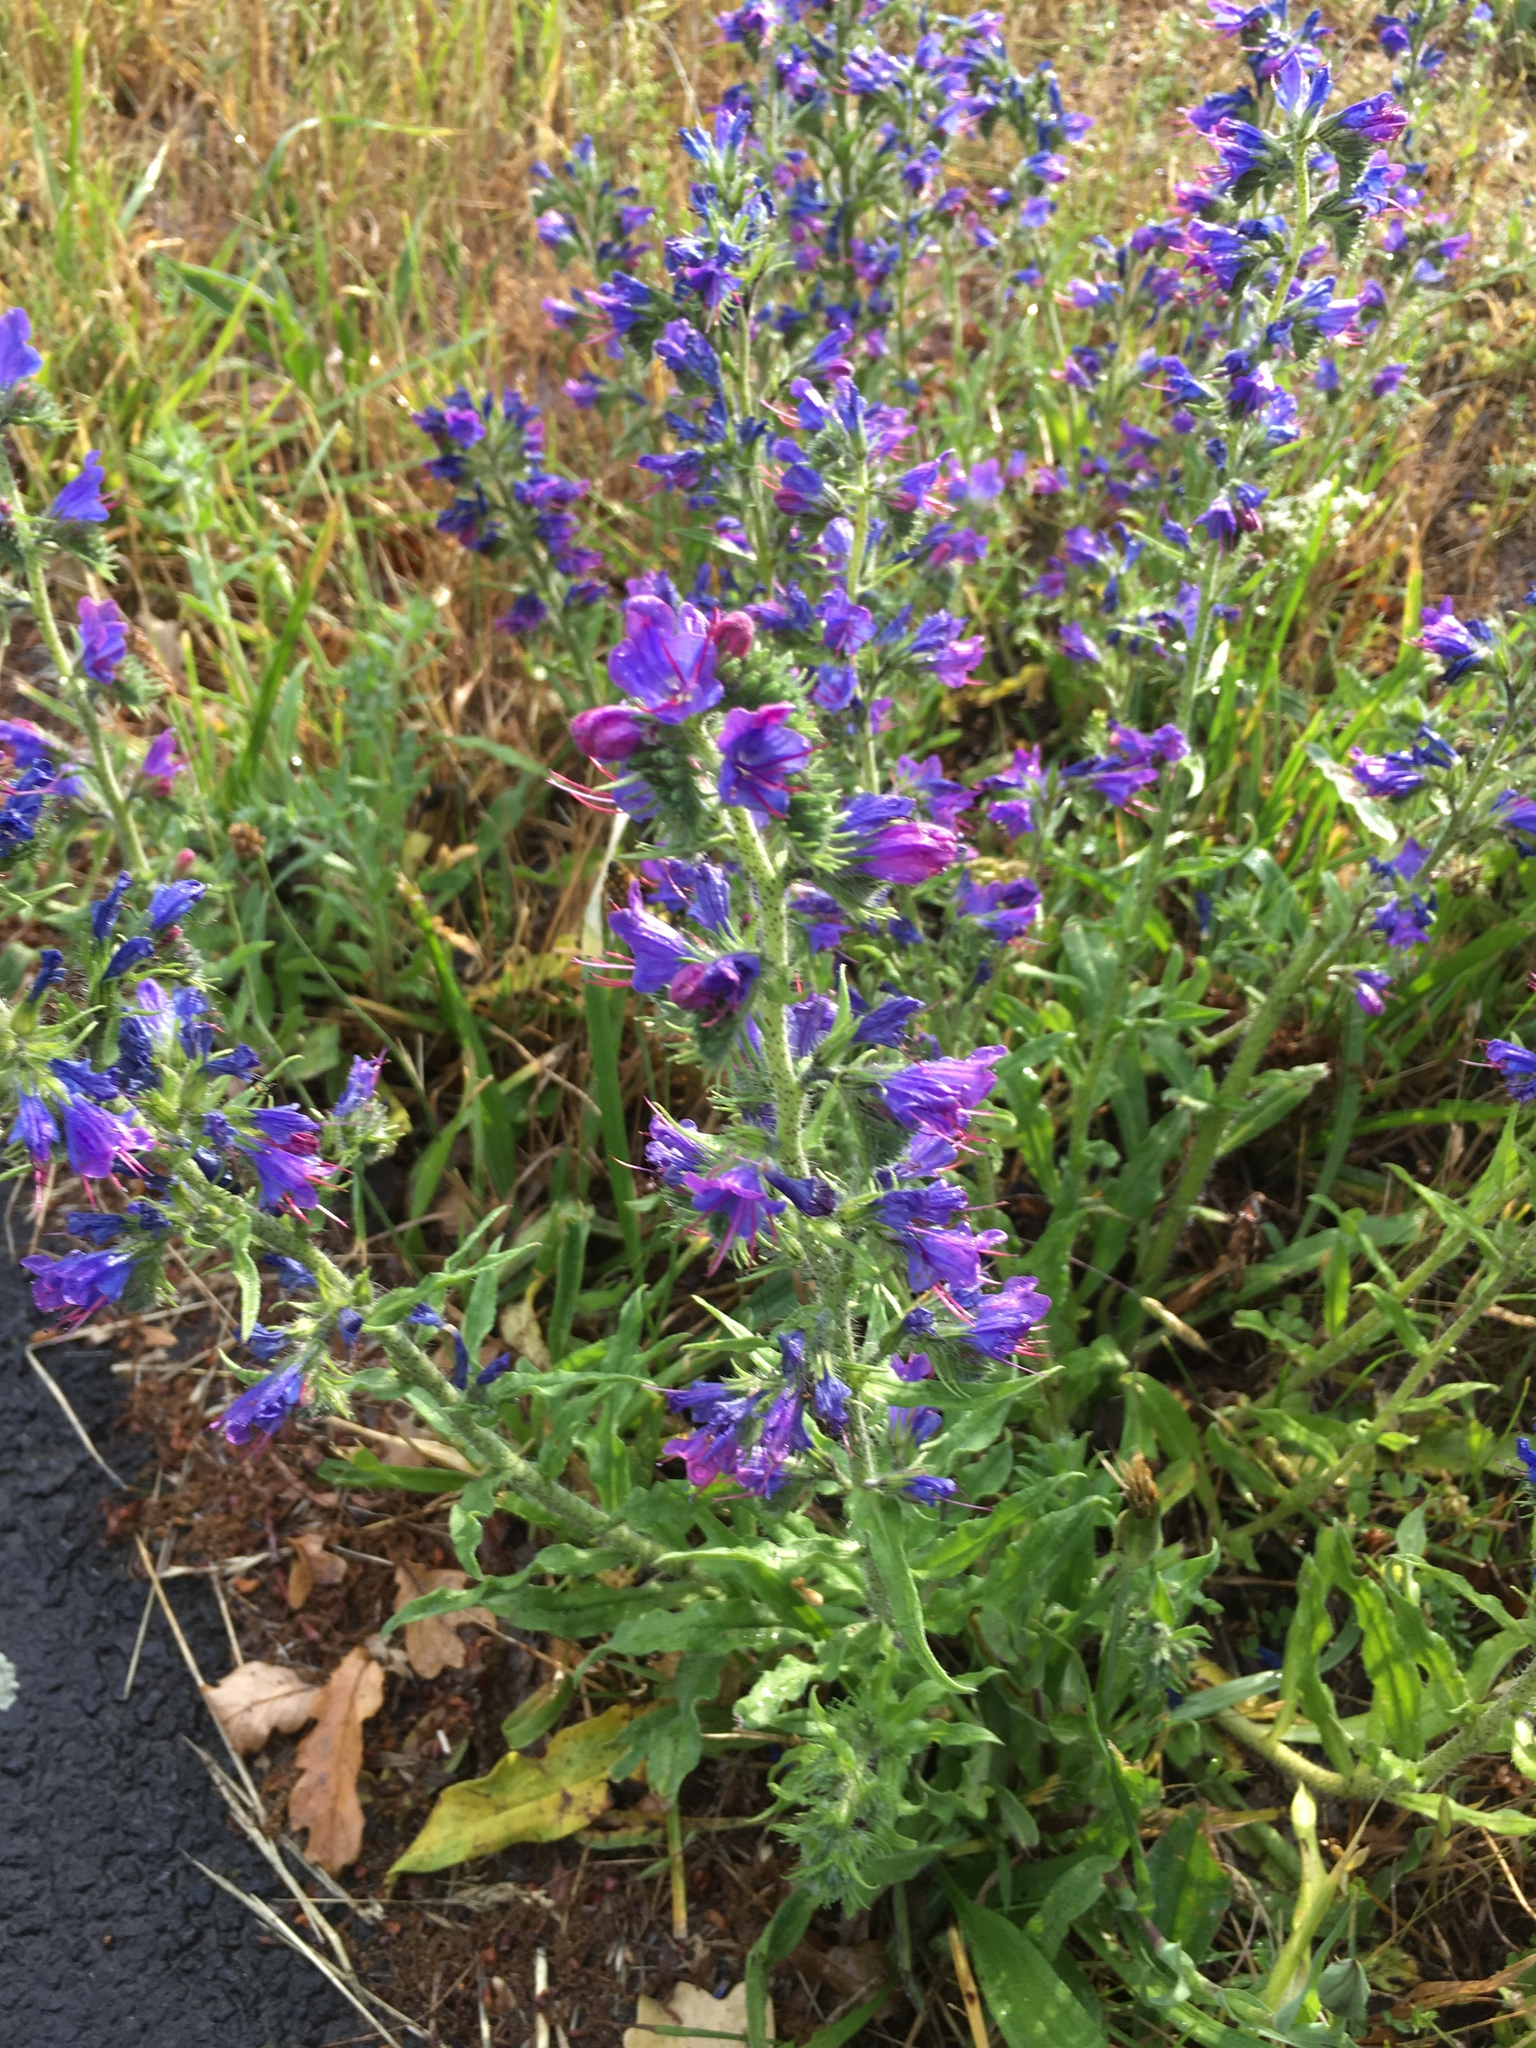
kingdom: Plantae
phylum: Tracheophyta
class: Magnoliopsida
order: Boraginales
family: Boraginaceae
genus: Echium
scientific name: Echium vulgare
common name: Common viper's bugloss
